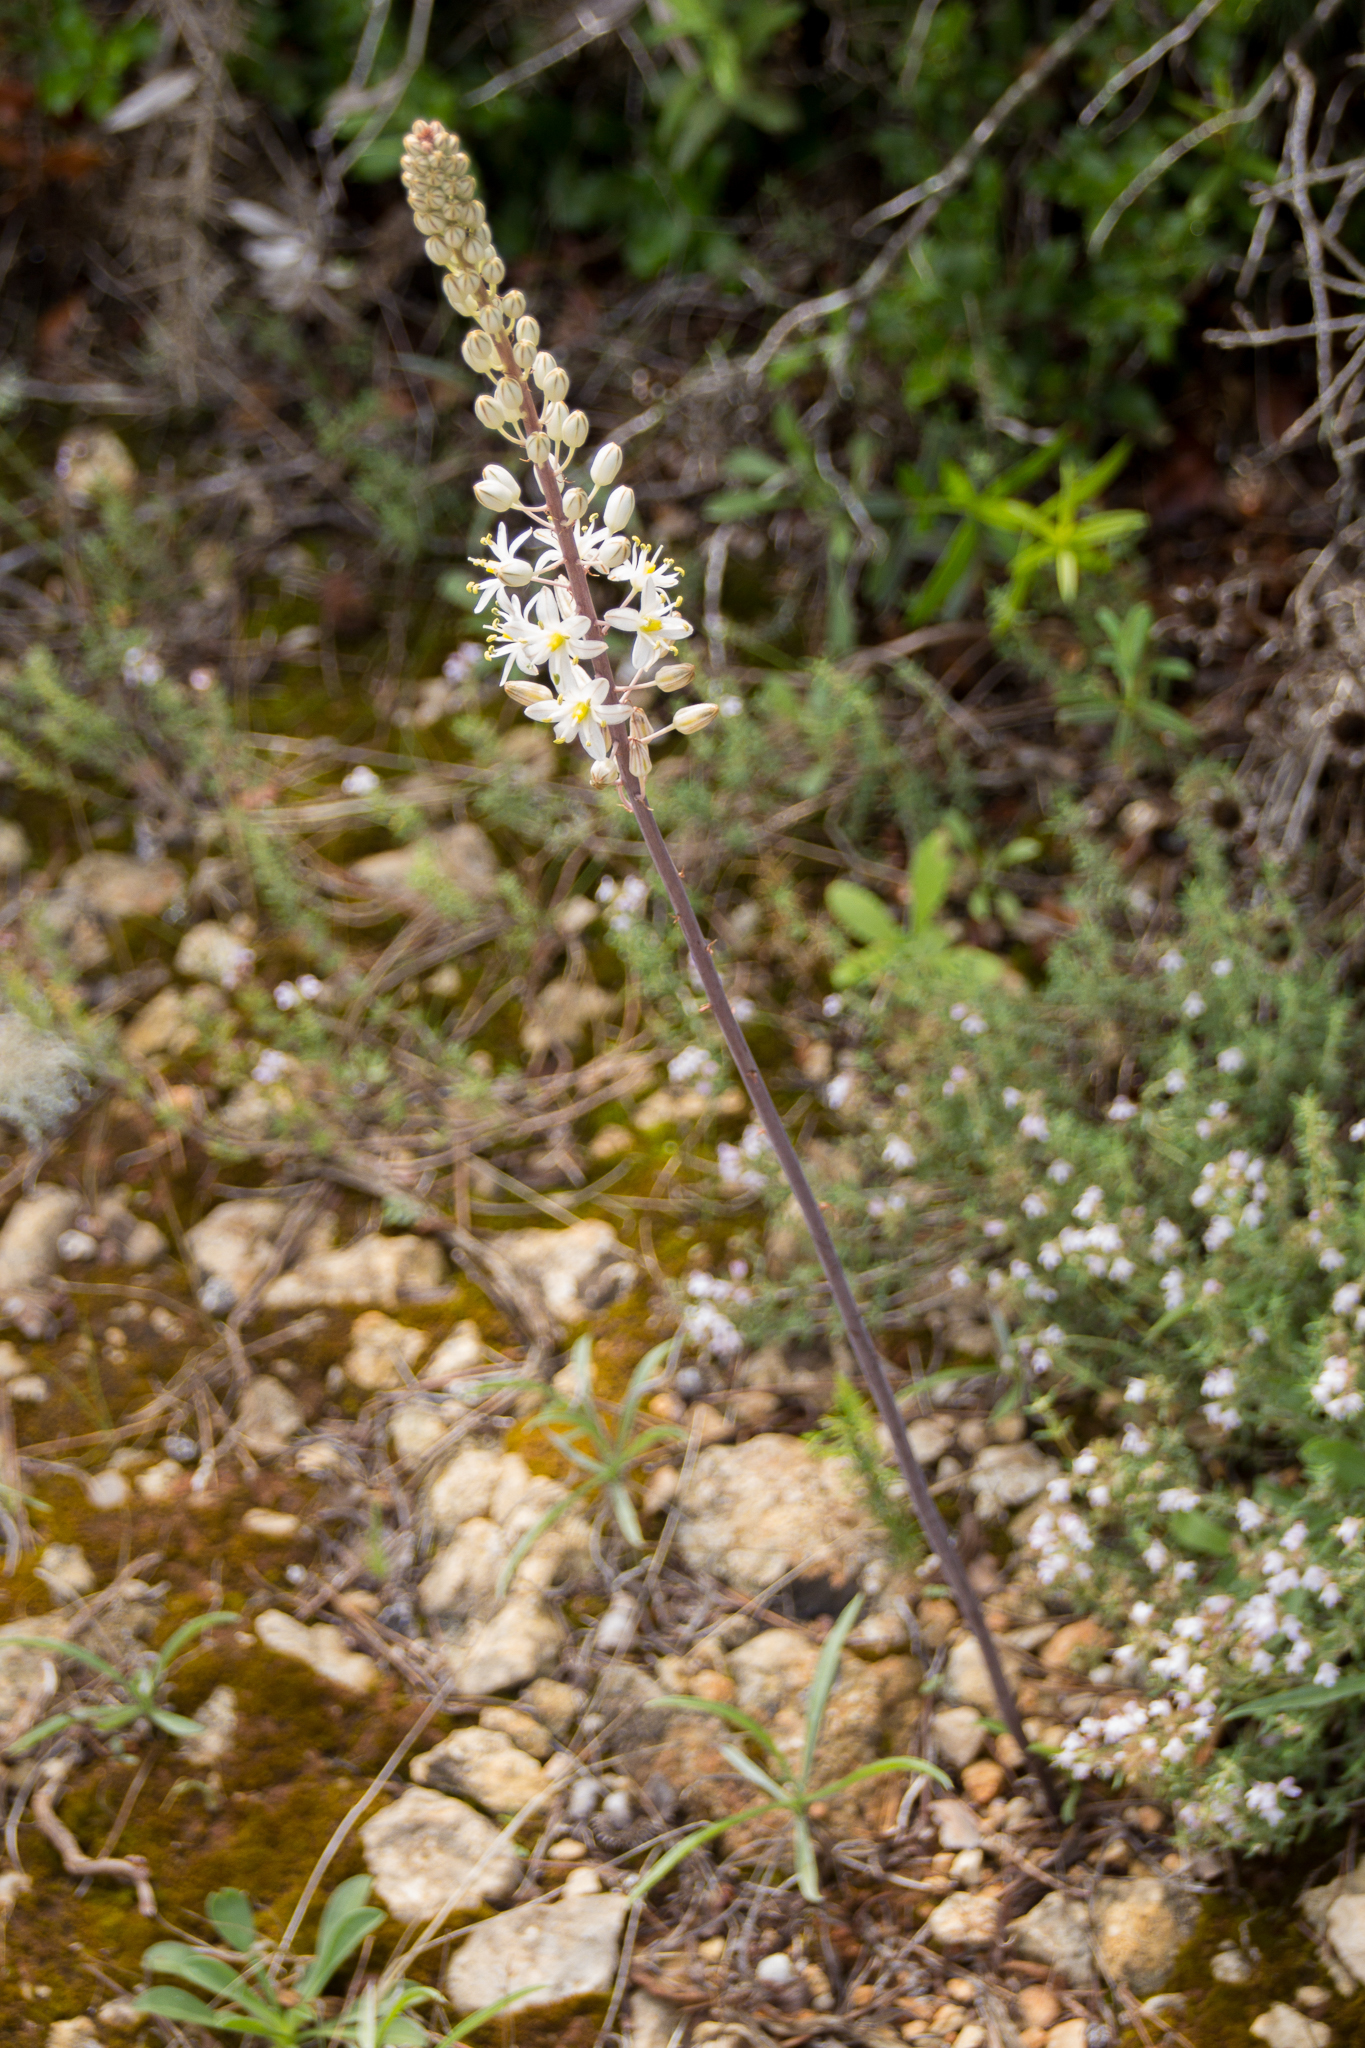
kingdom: Plantae
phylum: Tracheophyta
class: Liliopsida
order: Asparagales
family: Asparagaceae
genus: Drimia
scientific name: Drimia maritima
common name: Maritime squill
